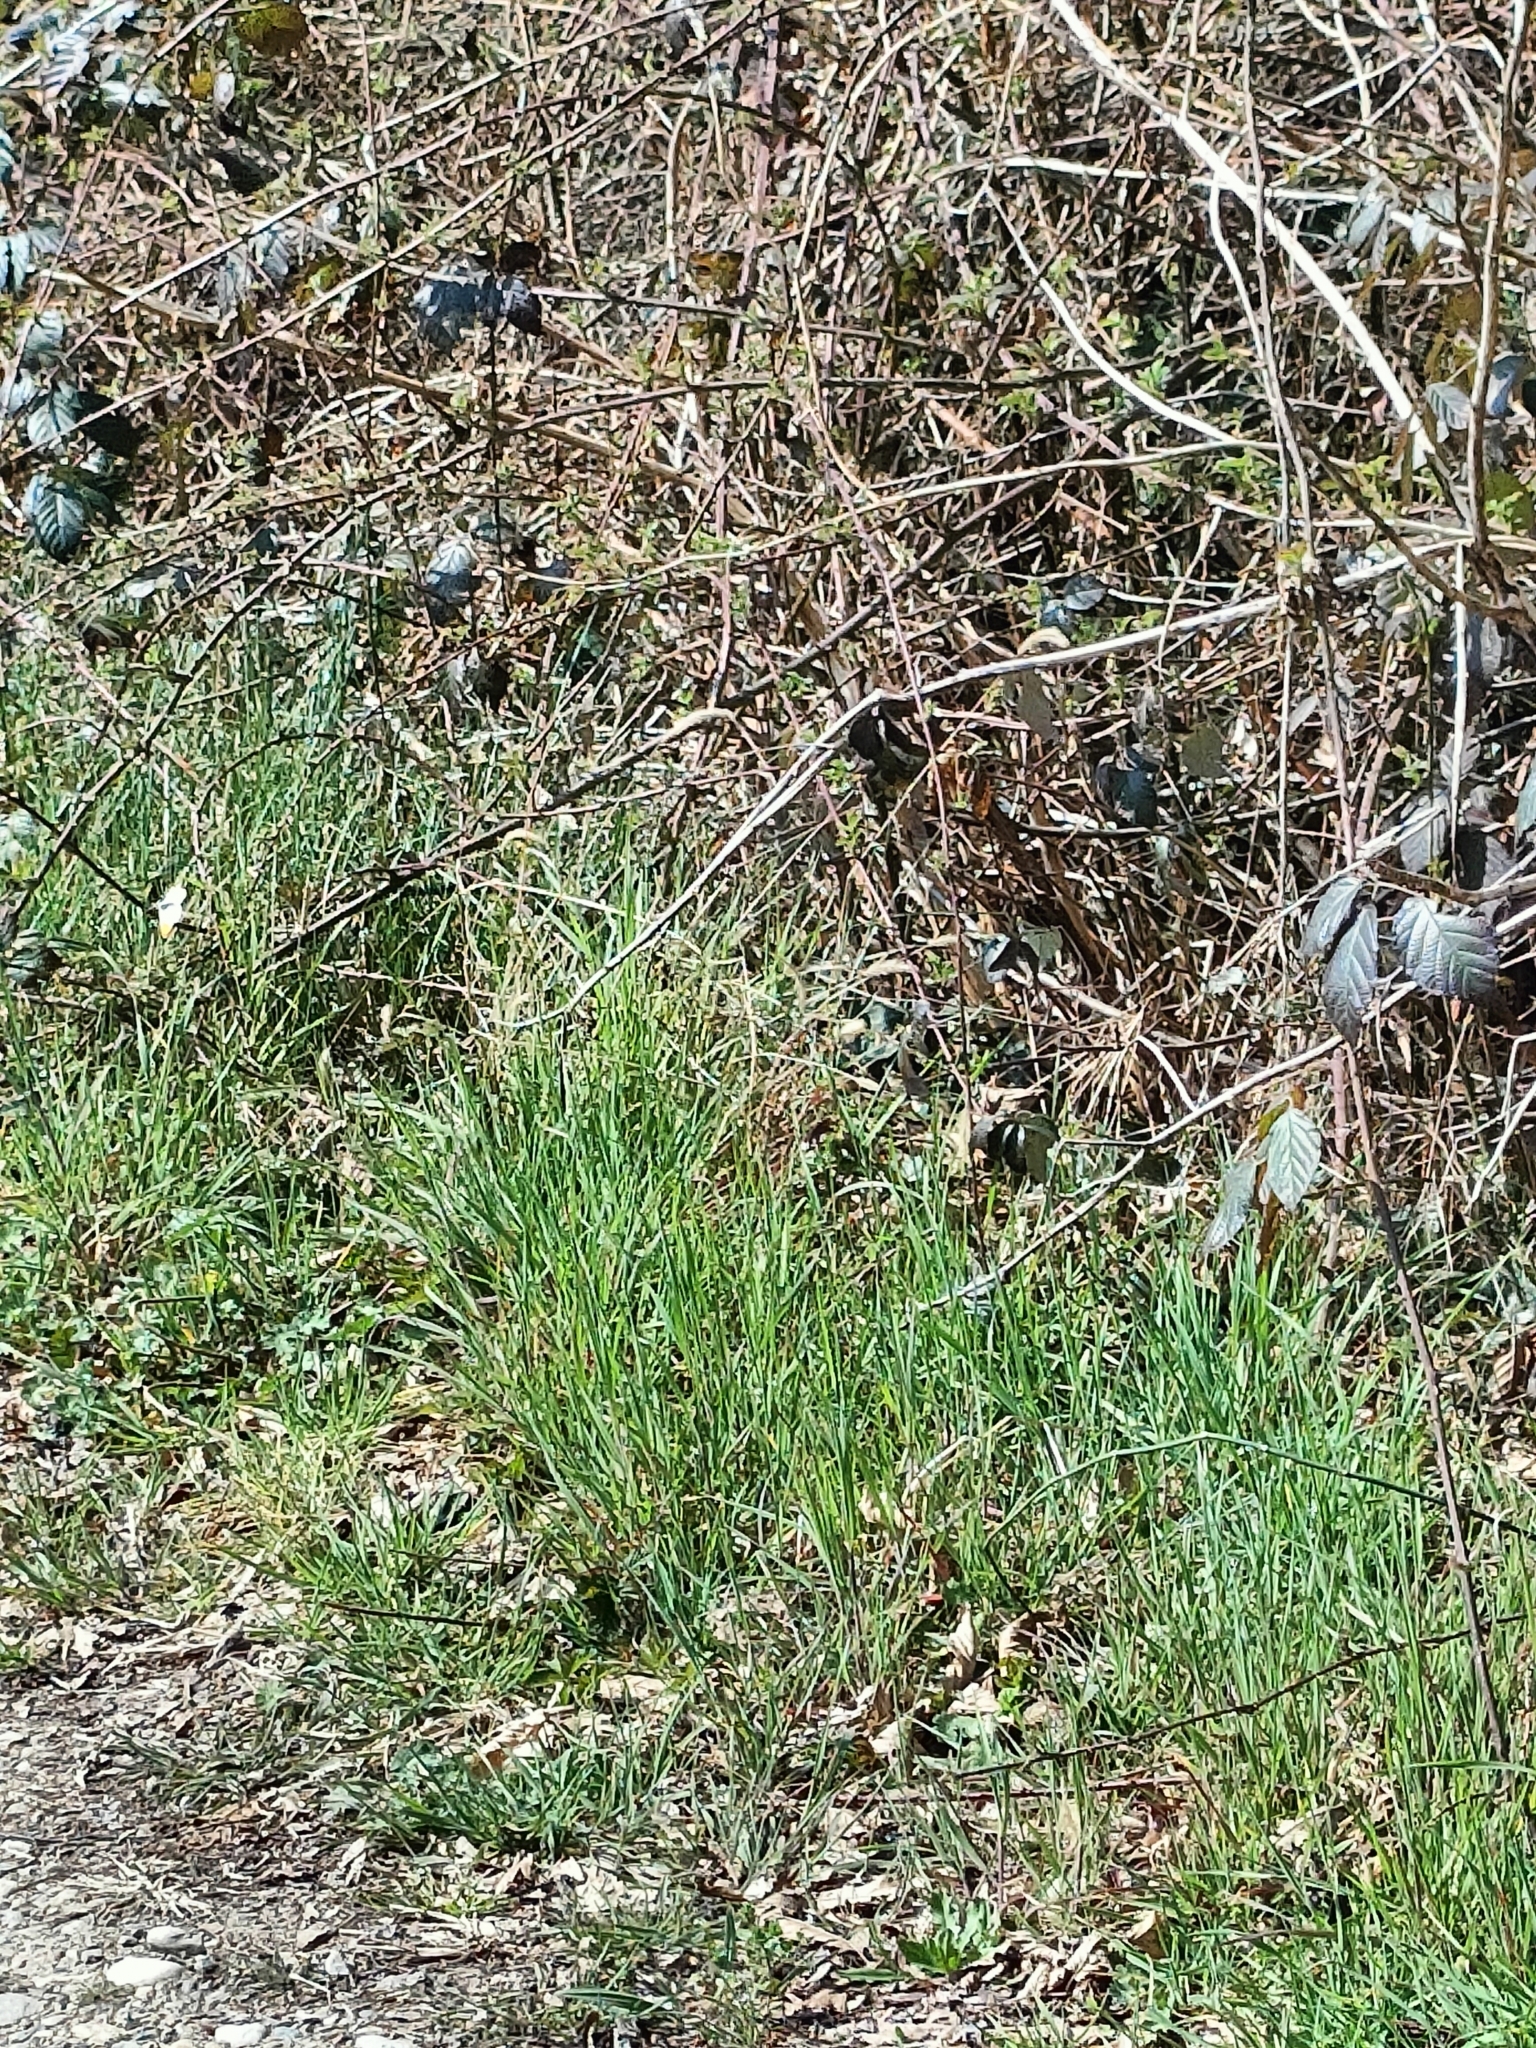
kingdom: Animalia
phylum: Arthropoda
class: Insecta
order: Lepidoptera
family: Pieridae
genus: Anthocharis
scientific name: Anthocharis cardamines
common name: Orange-tip
